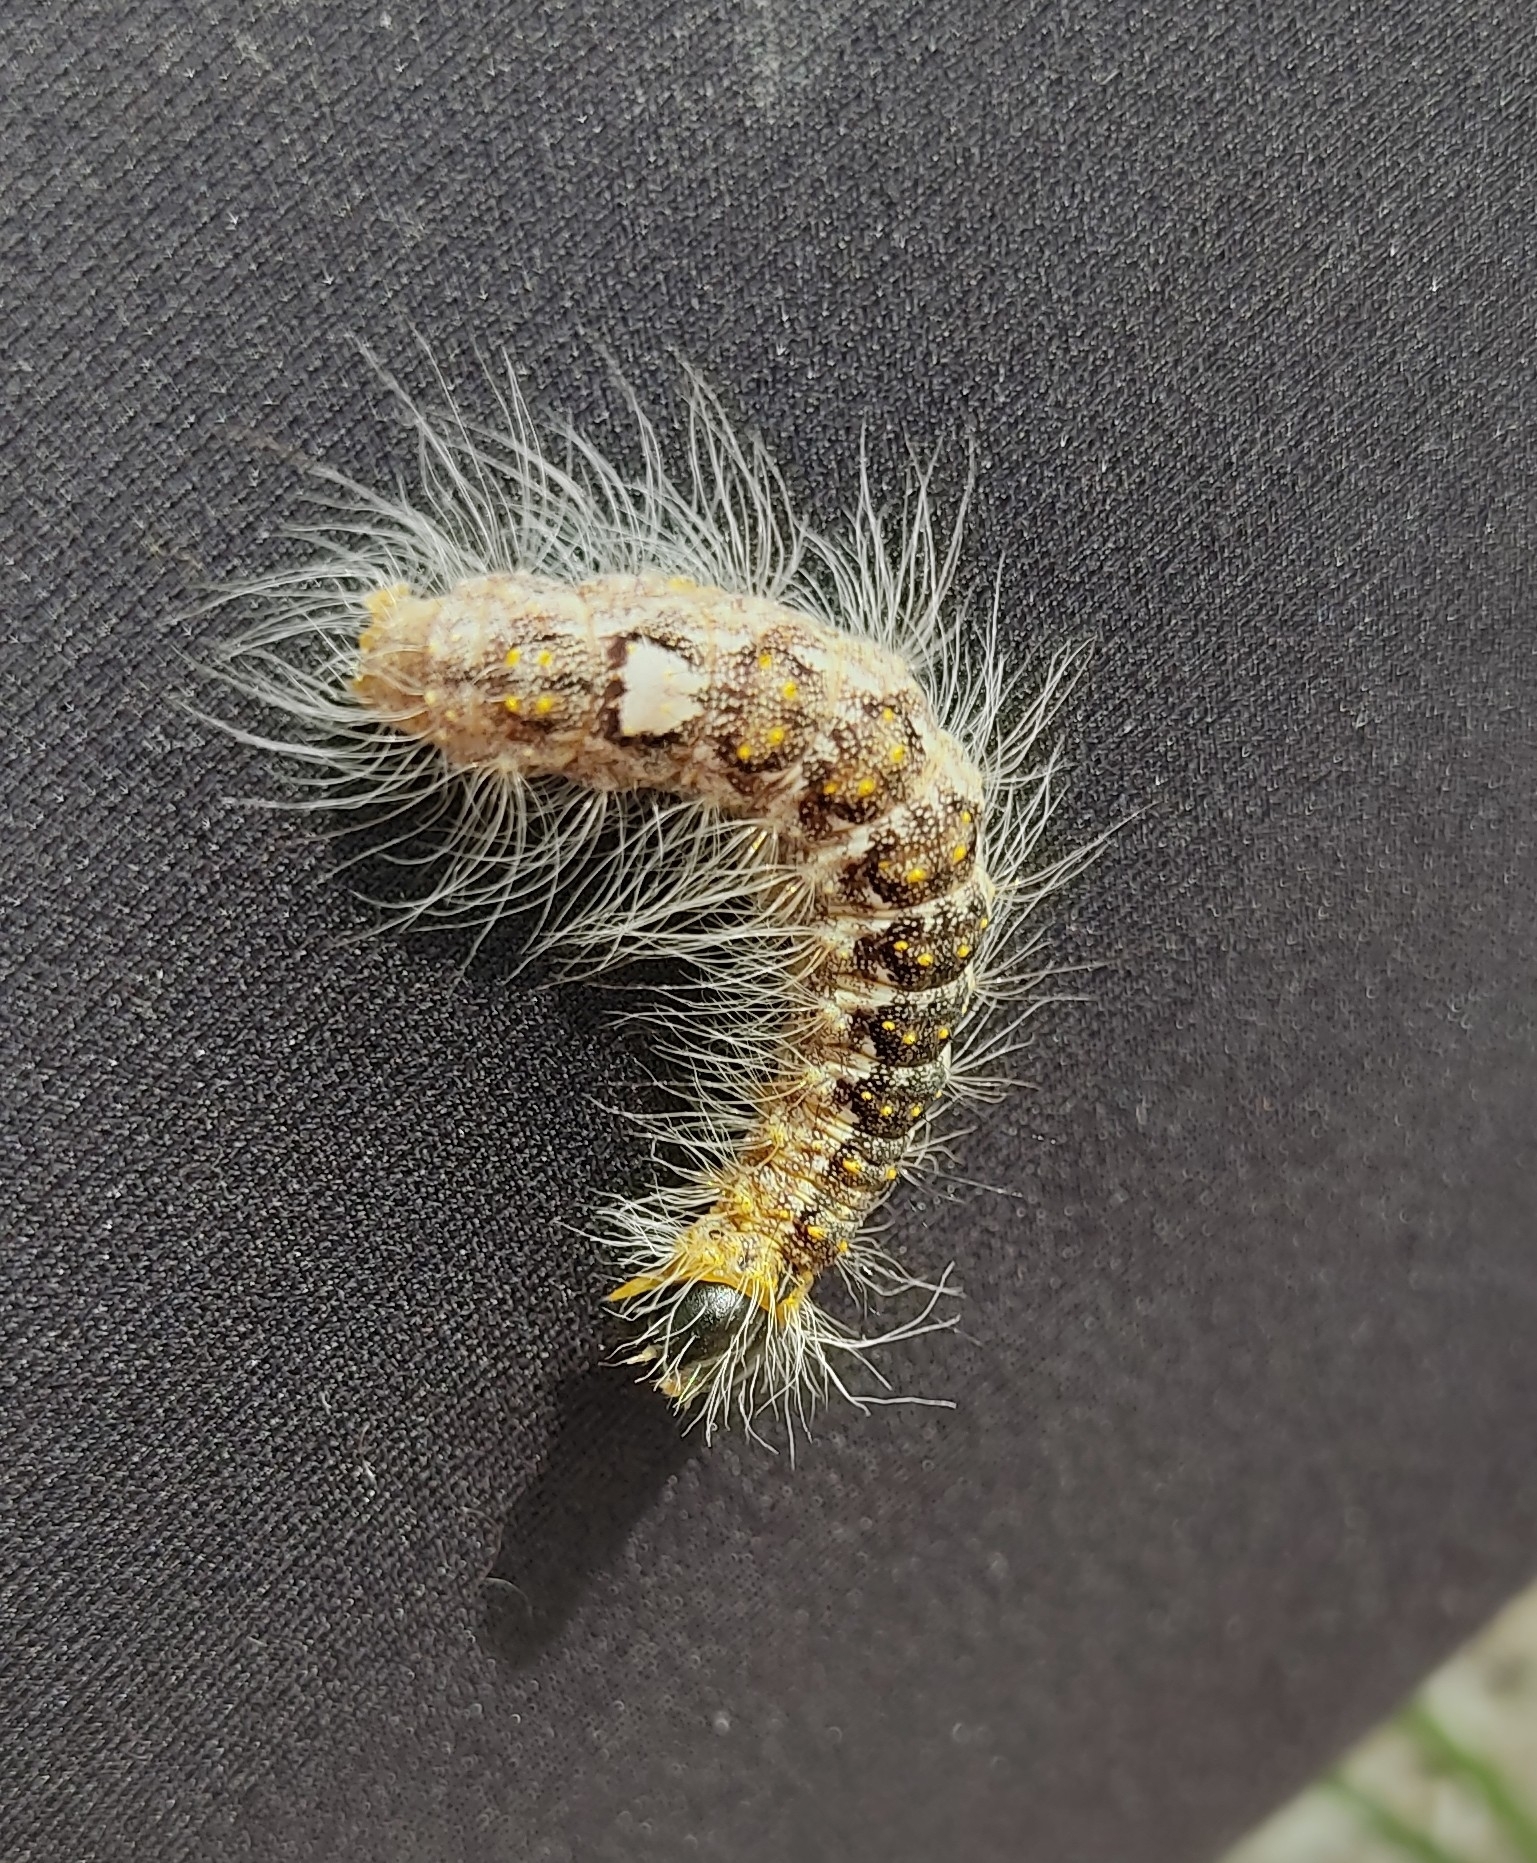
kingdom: Animalia
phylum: Arthropoda
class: Insecta
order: Lepidoptera
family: Noctuidae
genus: Acronicta
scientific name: Acronicta megacephala
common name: Poplar grey
